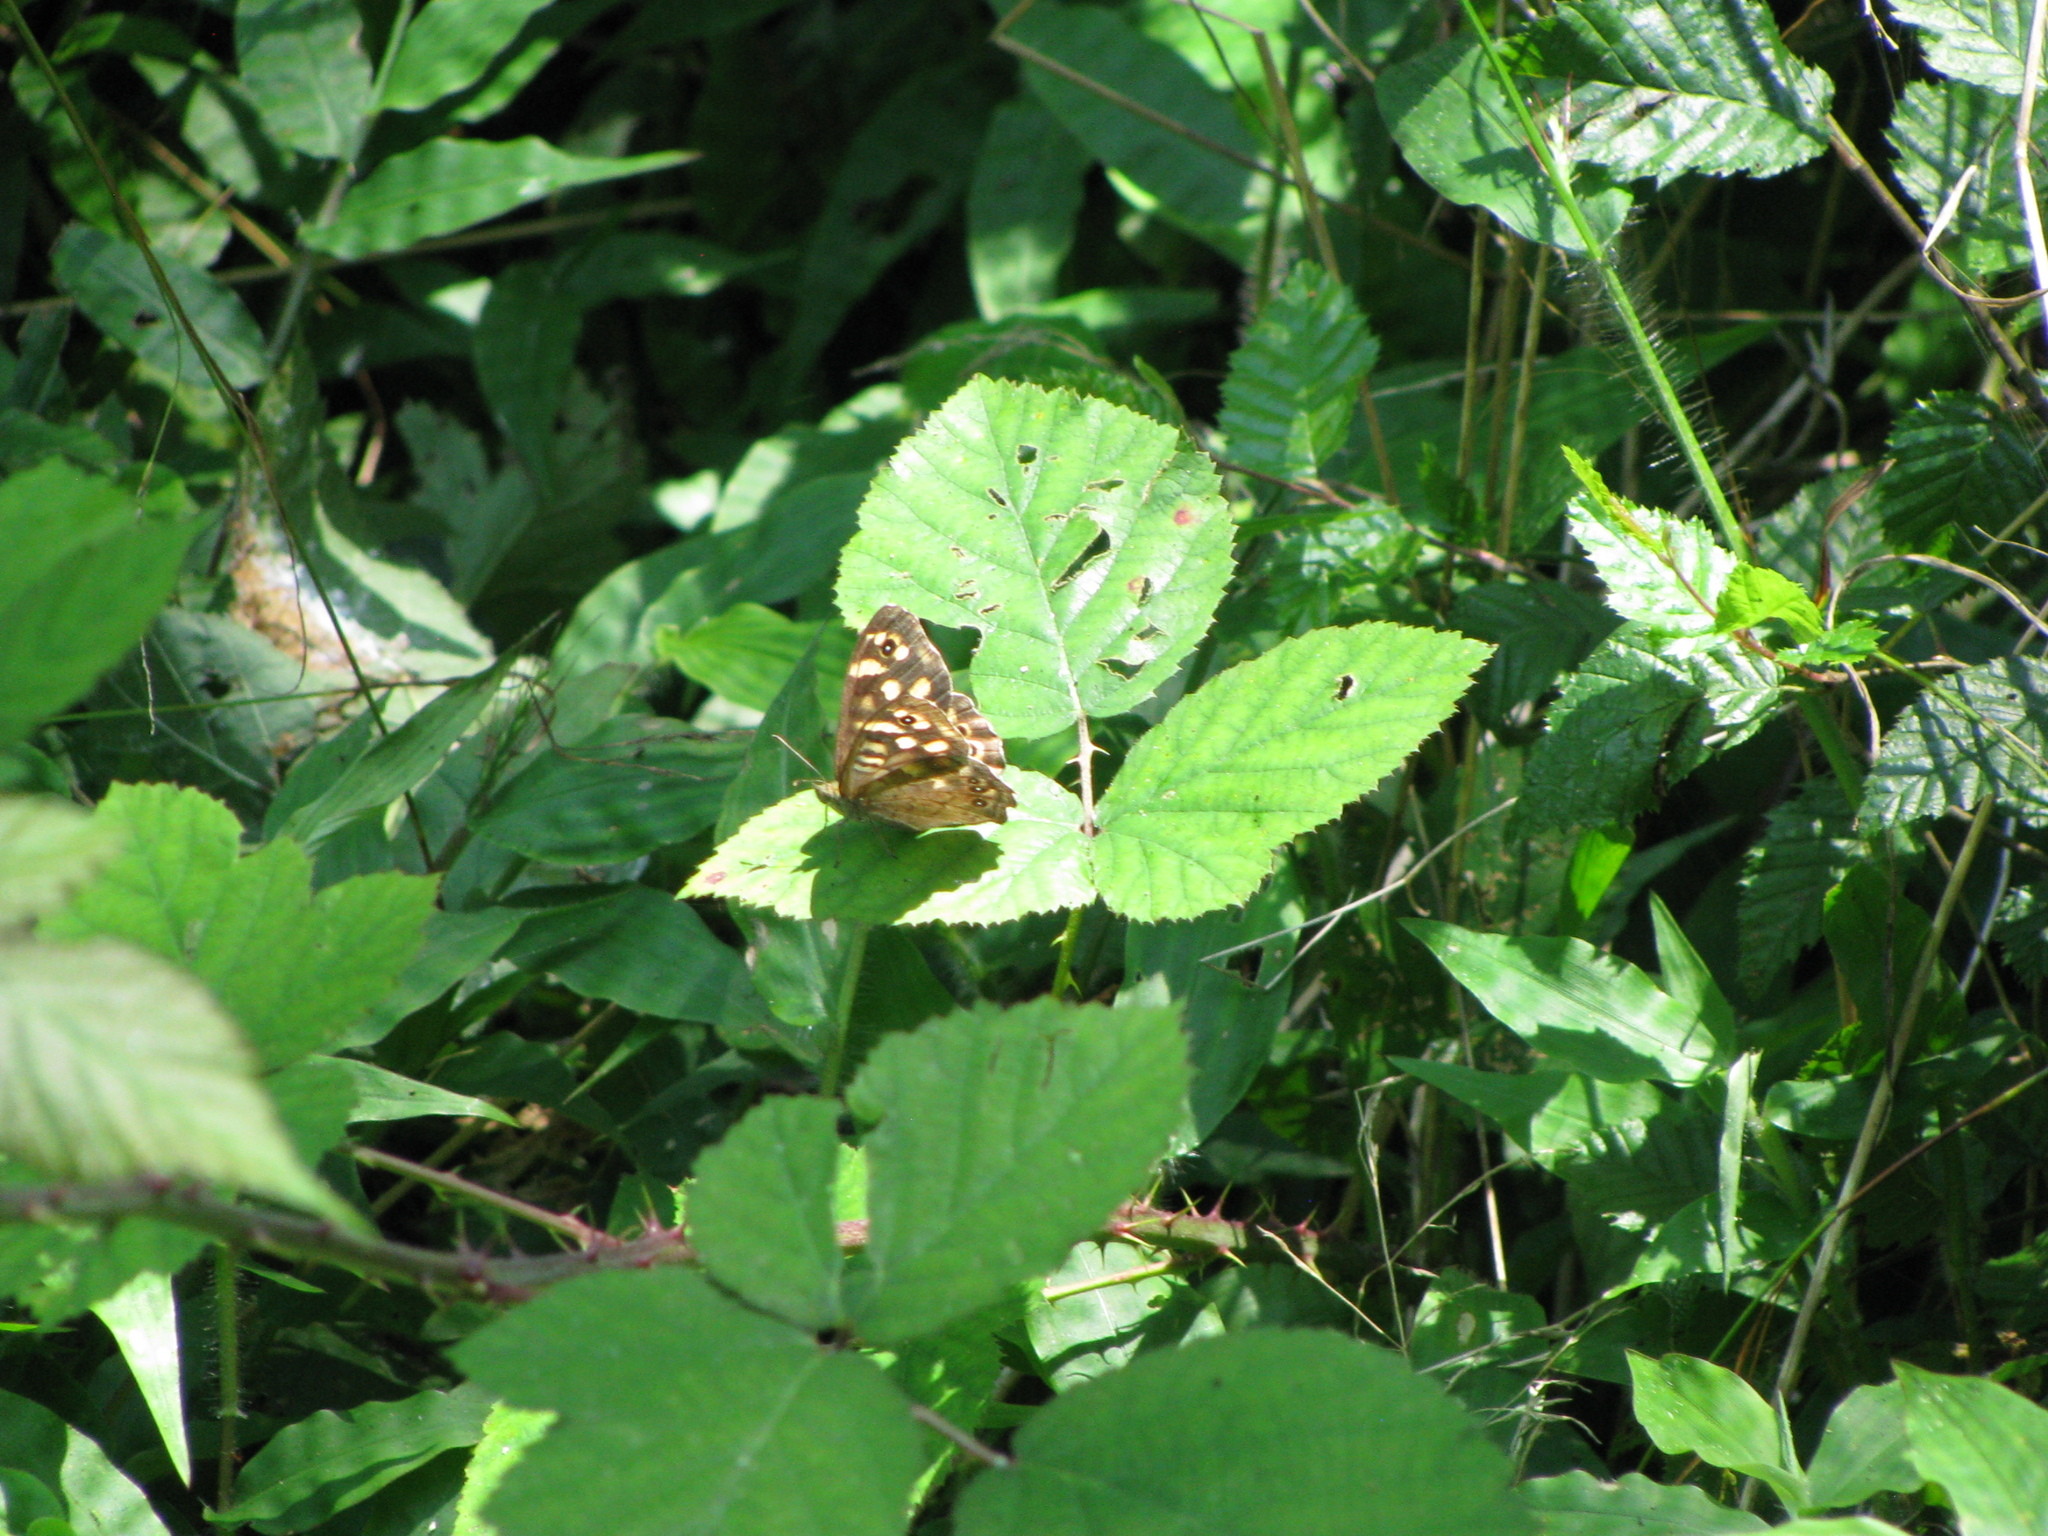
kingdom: Animalia
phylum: Arthropoda
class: Insecta
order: Lepidoptera
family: Nymphalidae
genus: Pararge
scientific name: Pararge aegeria
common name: Speckled wood
